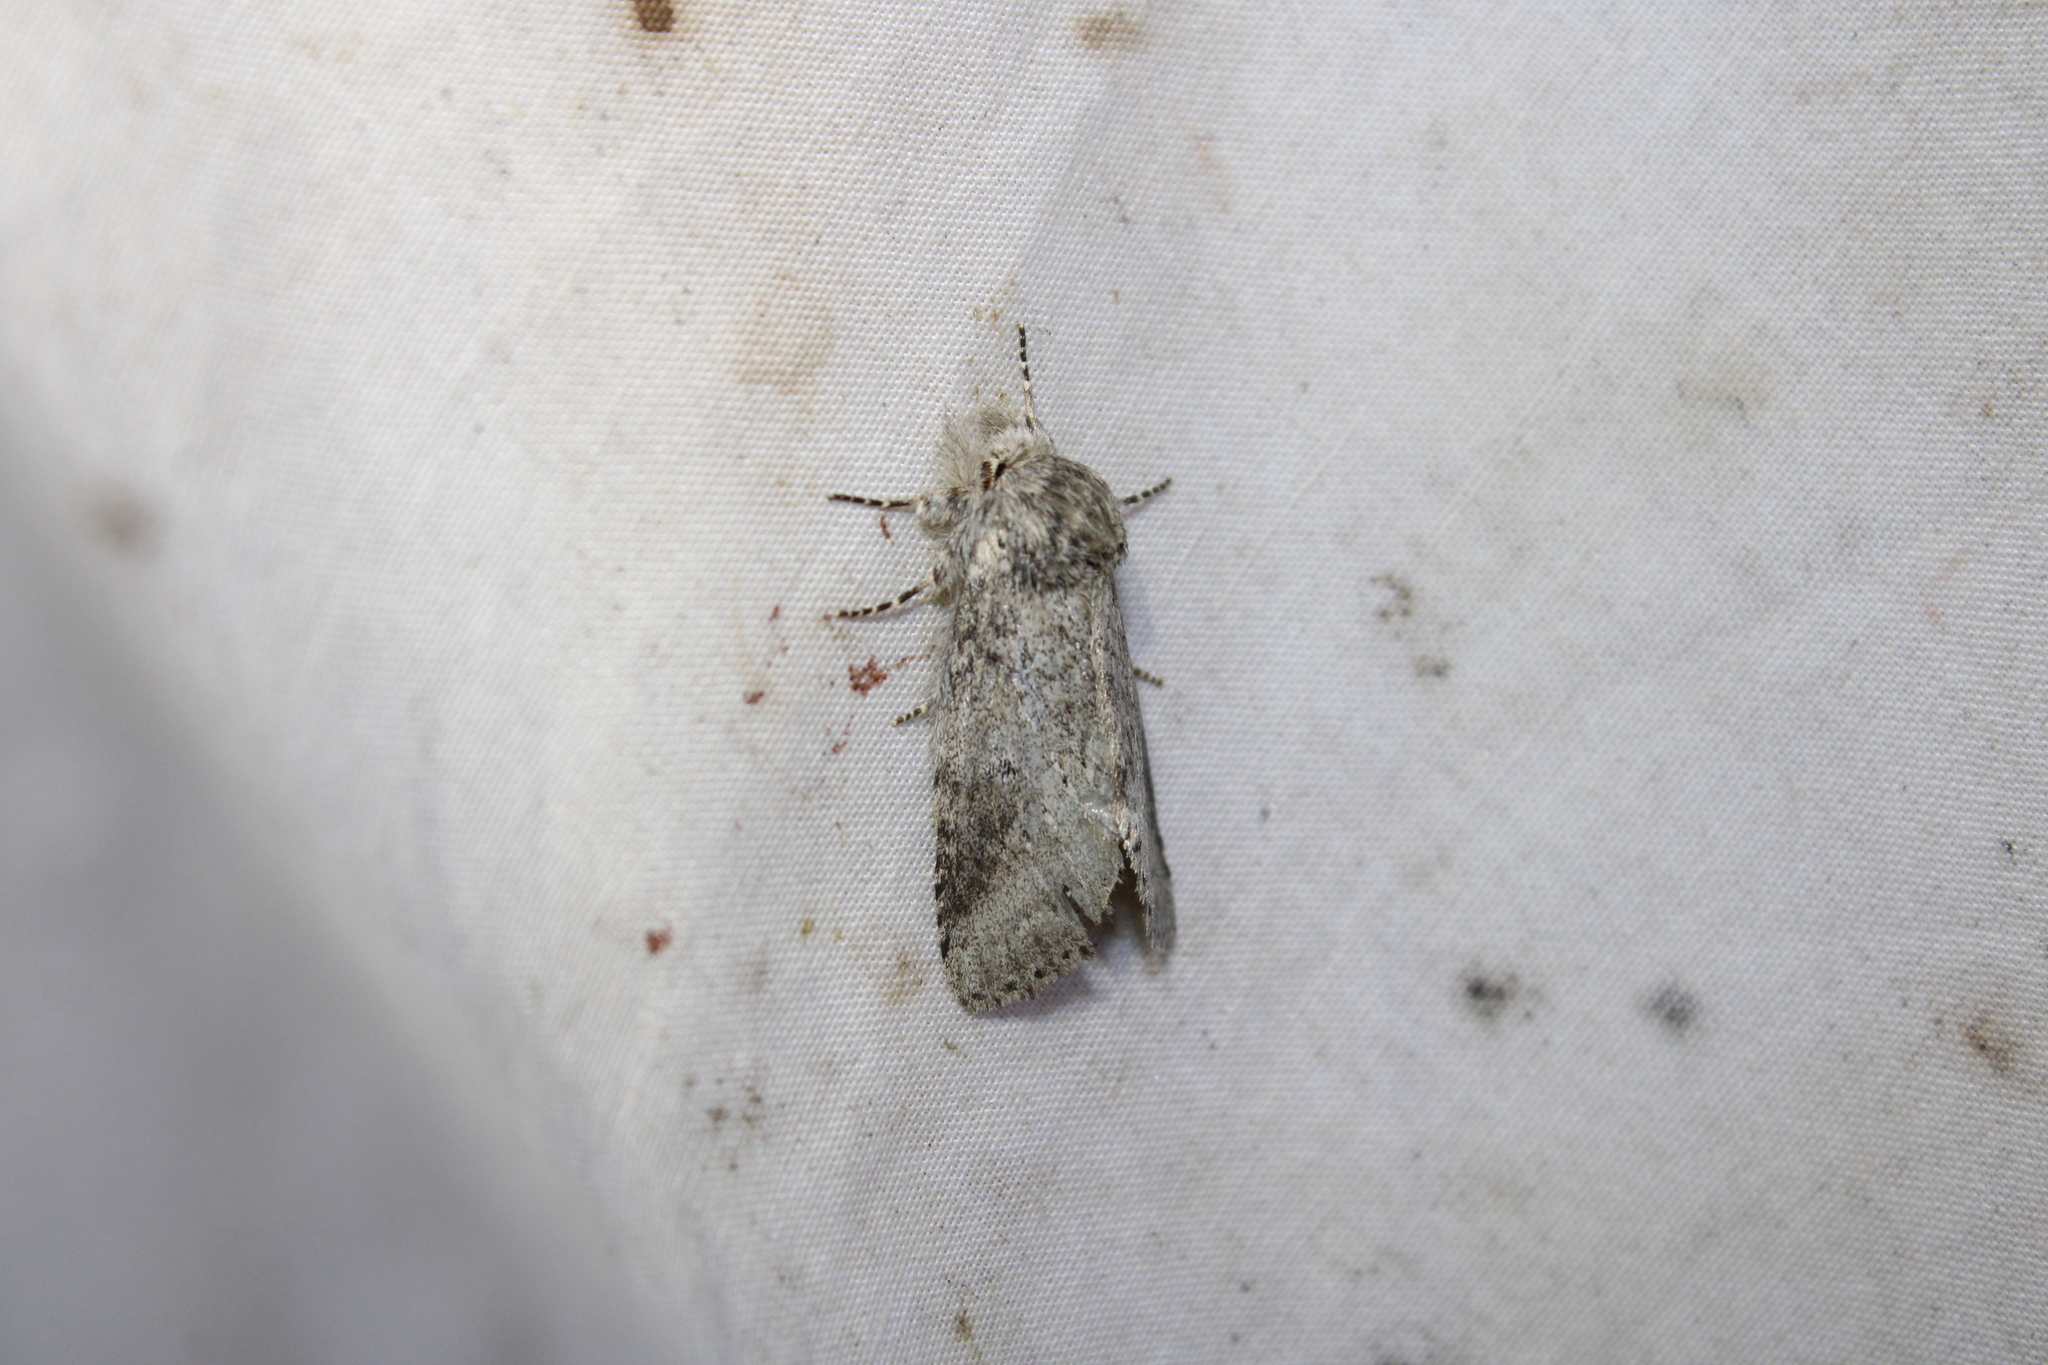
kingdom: Animalia
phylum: Arthropoda
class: Insecta
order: Lepidoptera
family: Notodontidae
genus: Lochmaeus
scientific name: Lochmaeus manteo
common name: Variable oakleaf caterpillar moth
